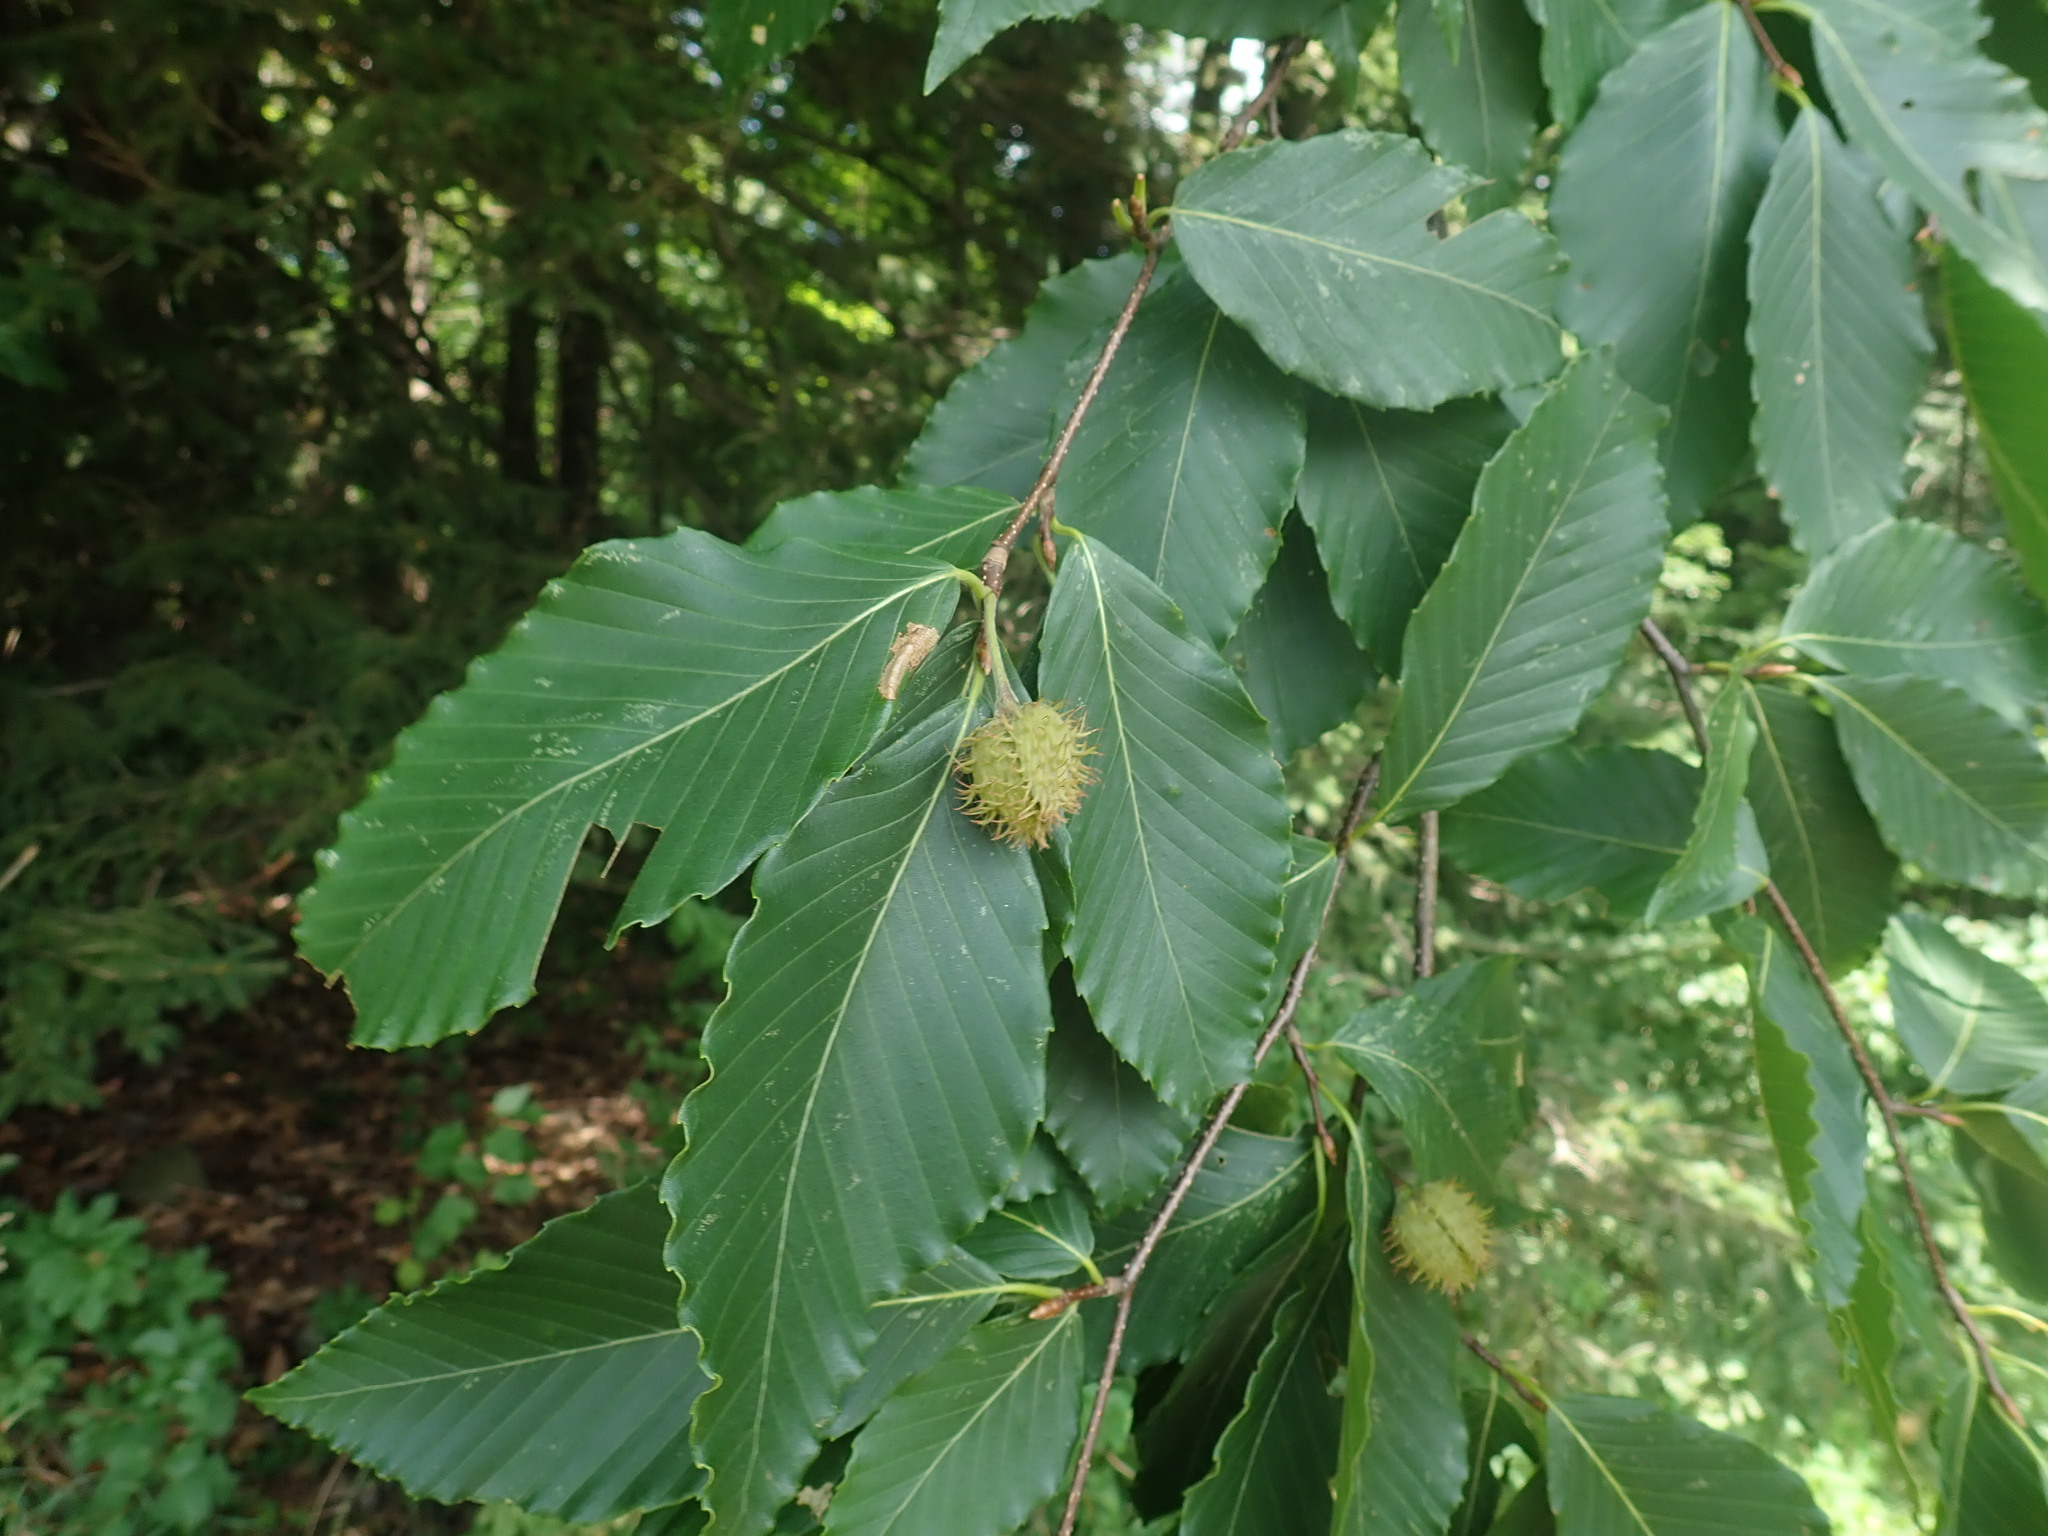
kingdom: Plantae
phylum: Tracheophyta
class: Magnoliopsida
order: Fagales
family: Fagaceae
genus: Fagus
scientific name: Fagus grandifolia
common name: American beech
